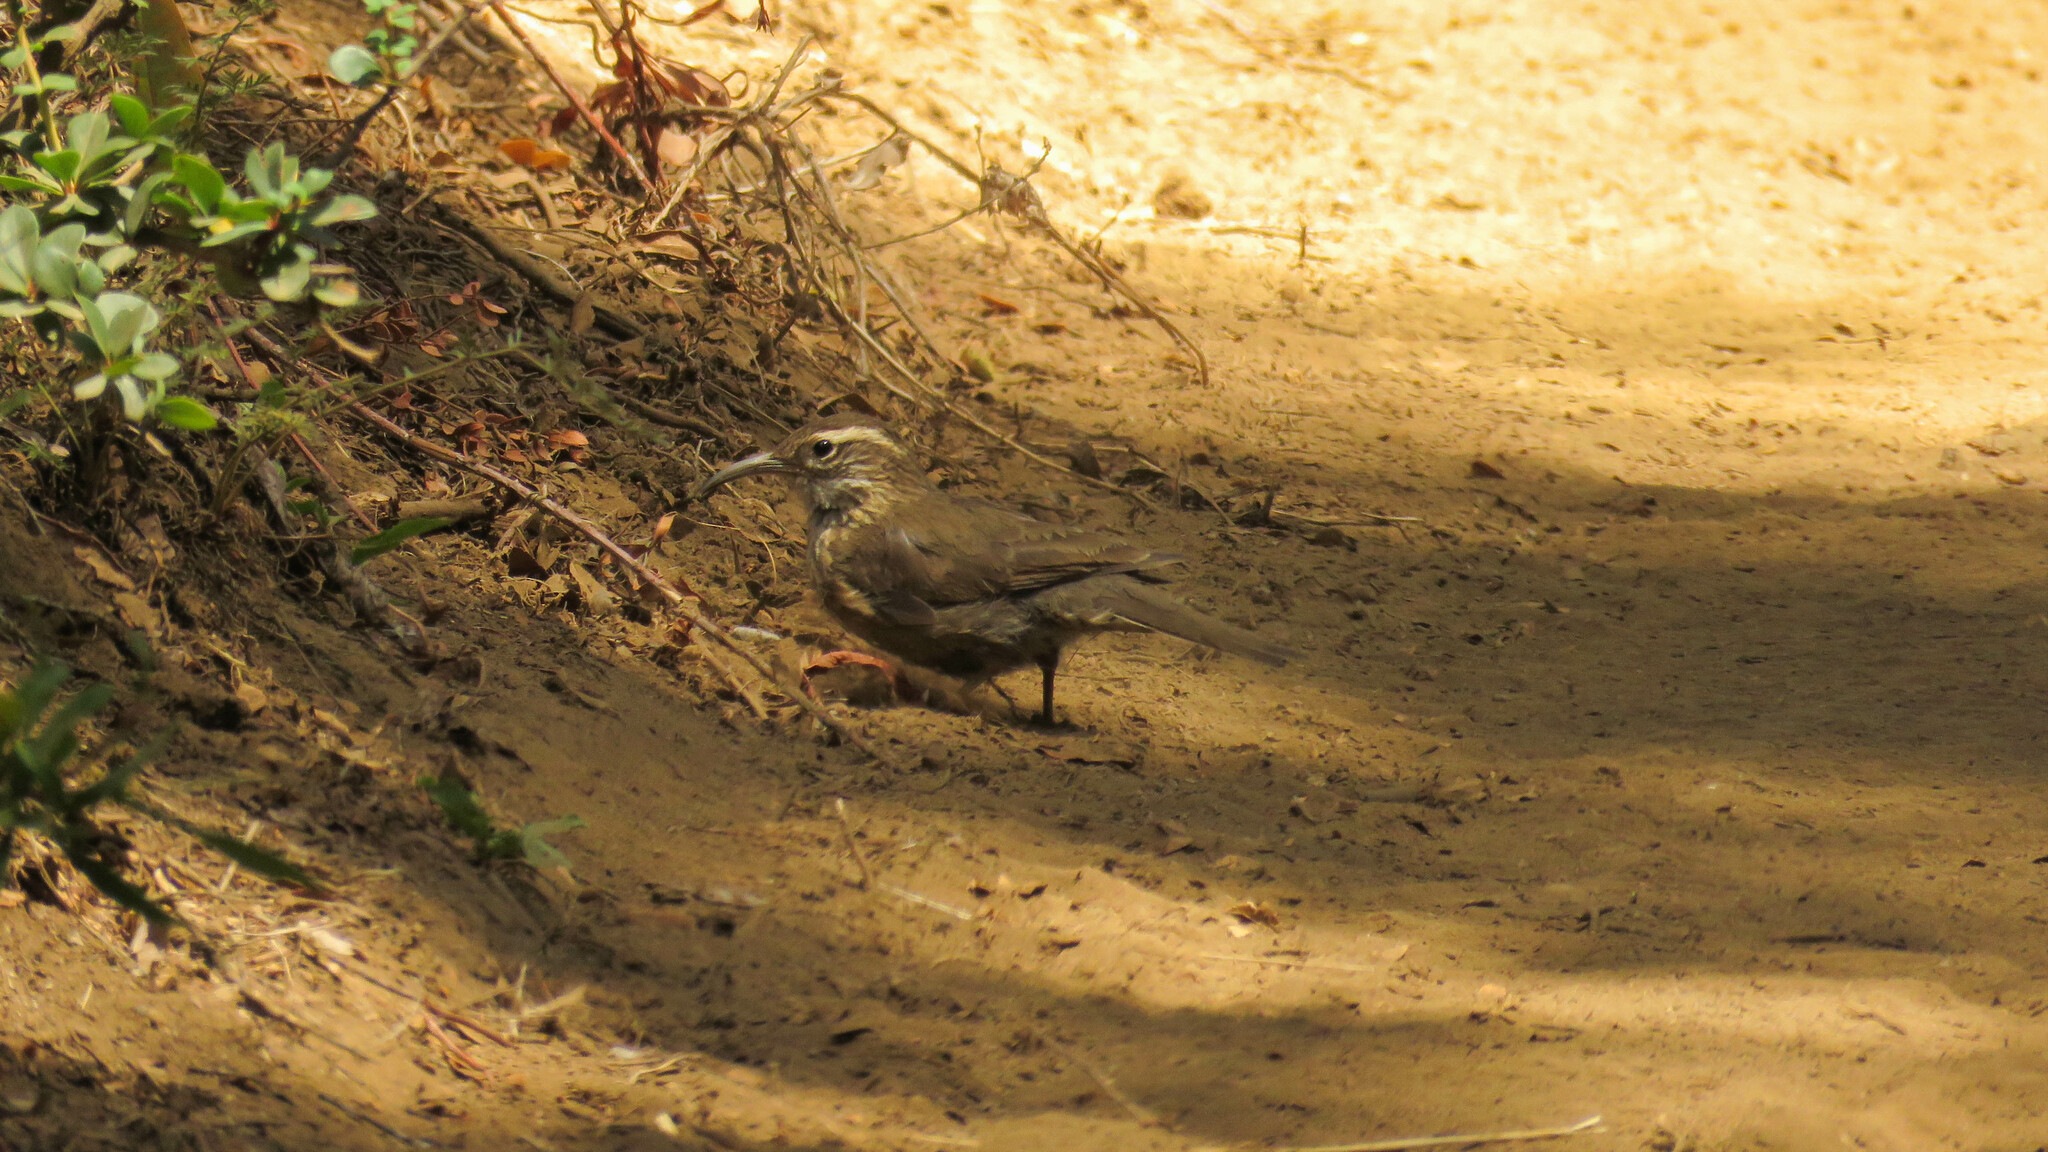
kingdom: Animalia
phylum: Chordata
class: Aves
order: Passeriformes
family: Furnariidae
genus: Upucerthia
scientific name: Upucerthia saturatior
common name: Patagonian forest earthcreeper
